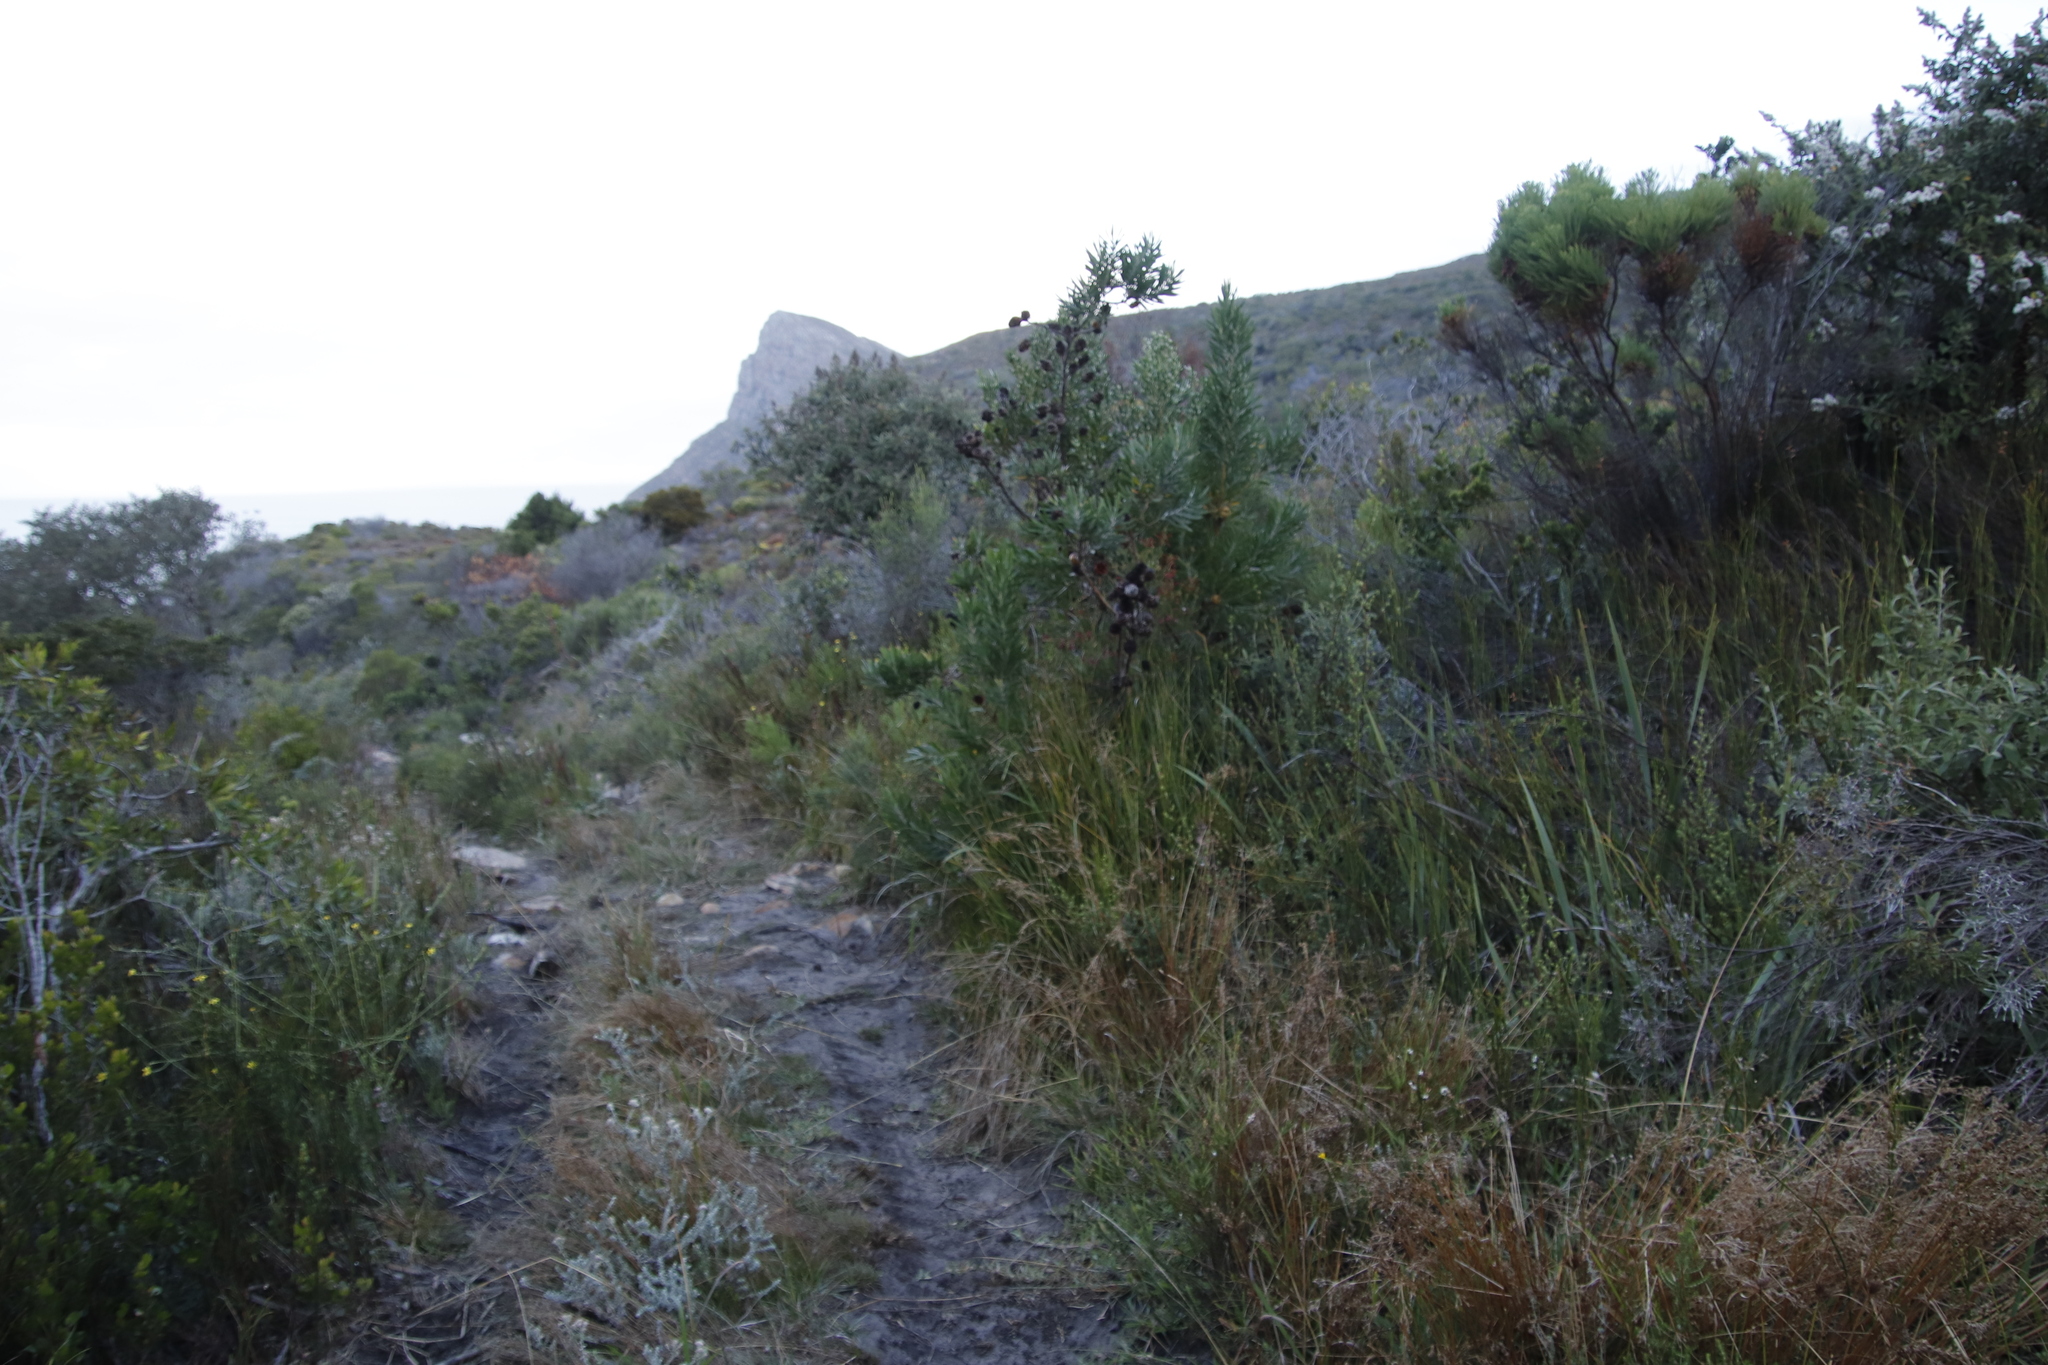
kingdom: Plantae
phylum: Tracheophyta
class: Magnoliopsida
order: Proteales
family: Proteaceae
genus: Leucadendron
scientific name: Leucadendron macowanii
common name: Acacia-leaf conebush
